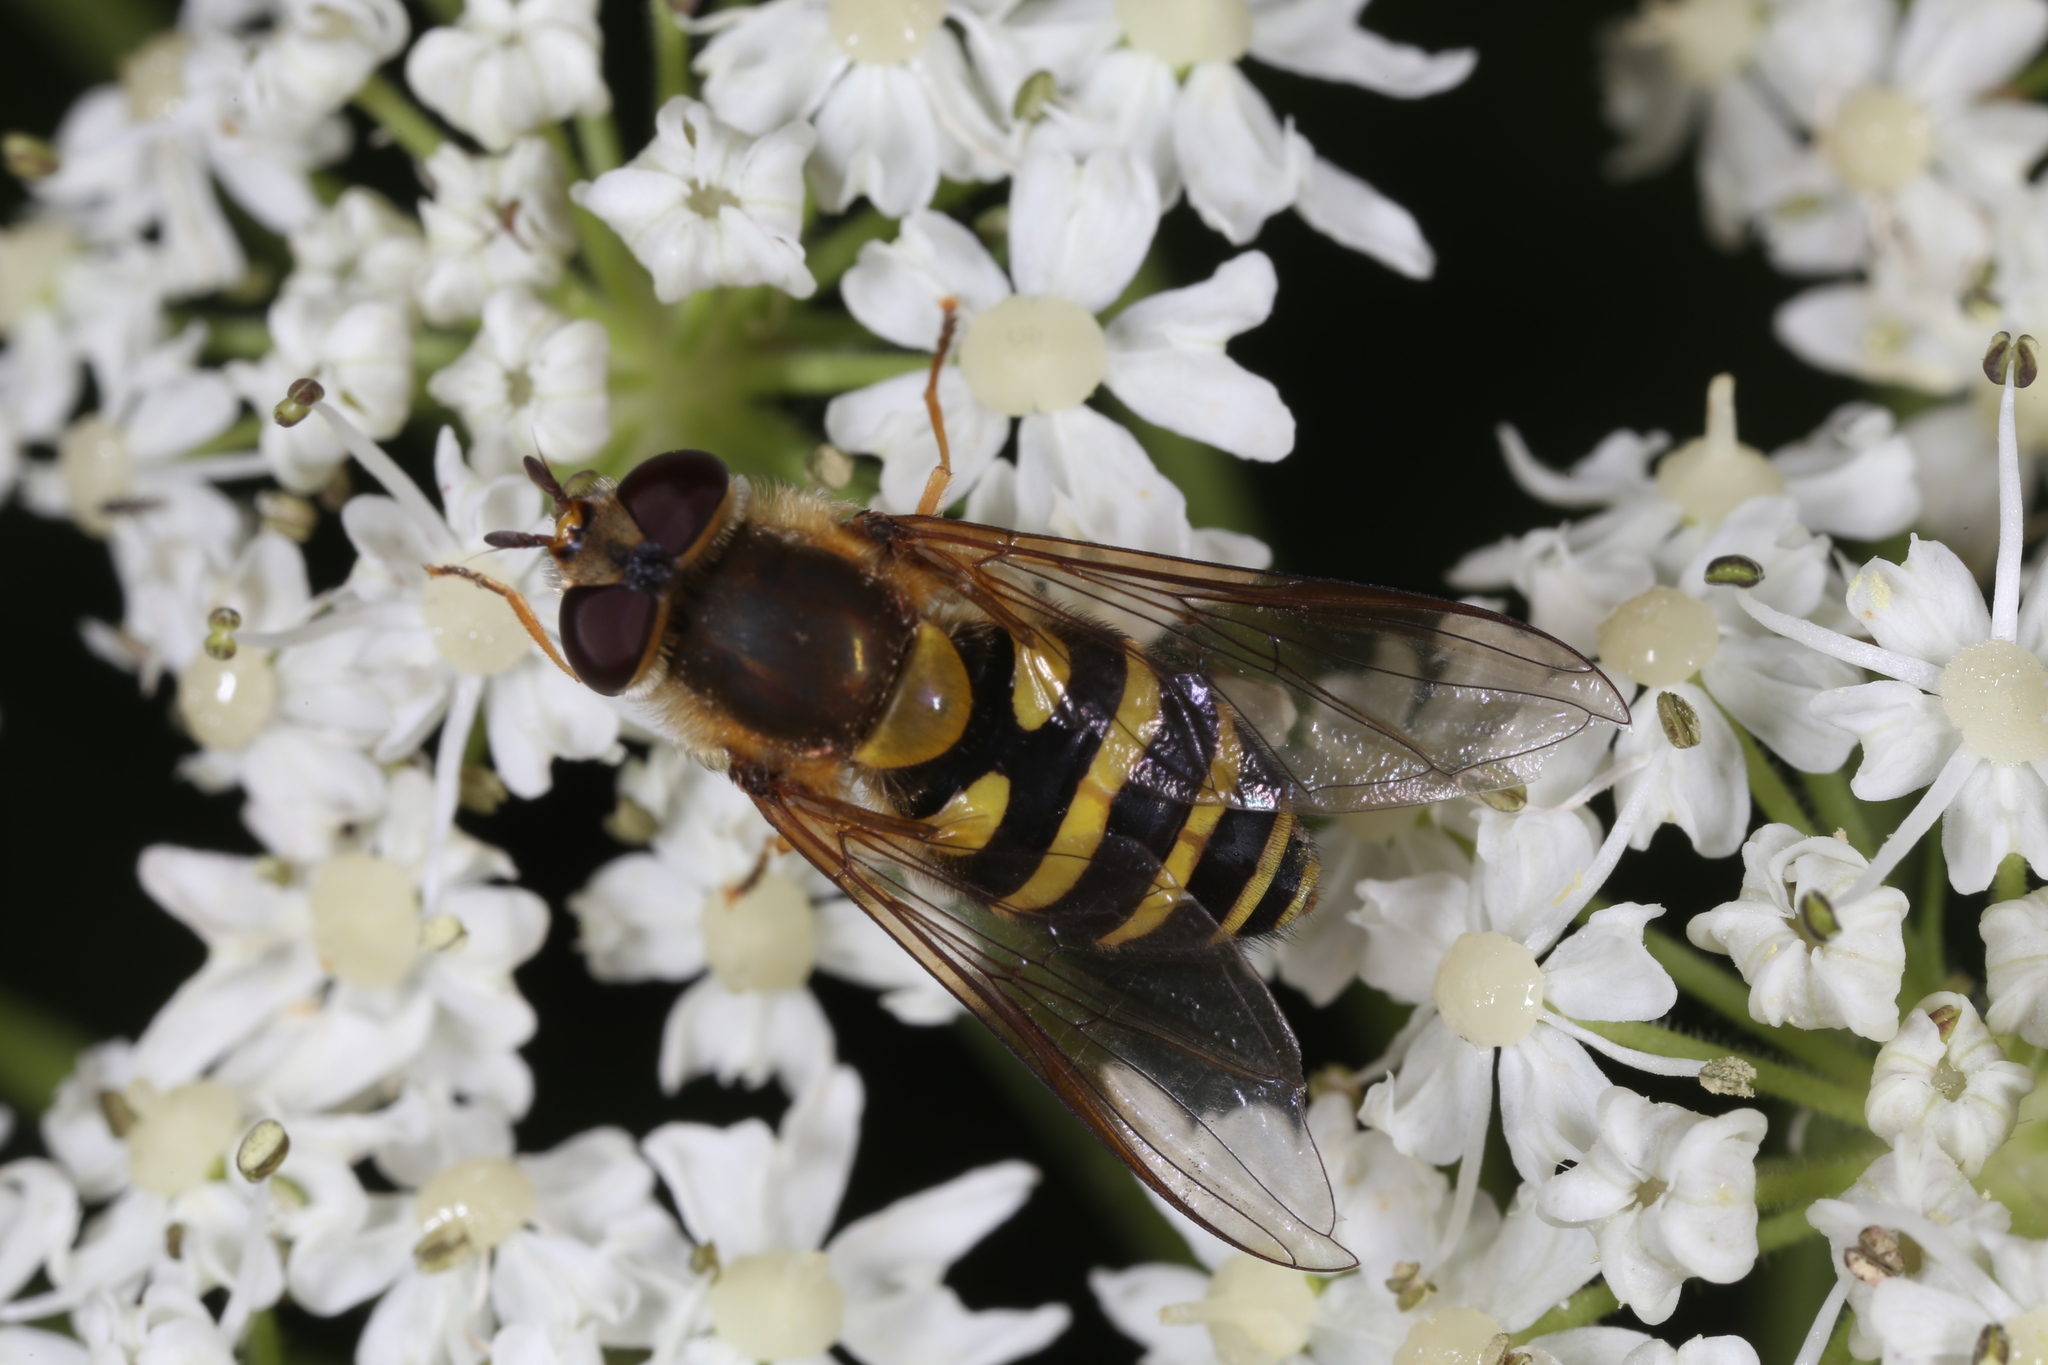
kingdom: Animalia
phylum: Arthropoda
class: Insecta
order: Diptera
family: Syrphidae
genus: Syrphus
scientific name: Syrphus
